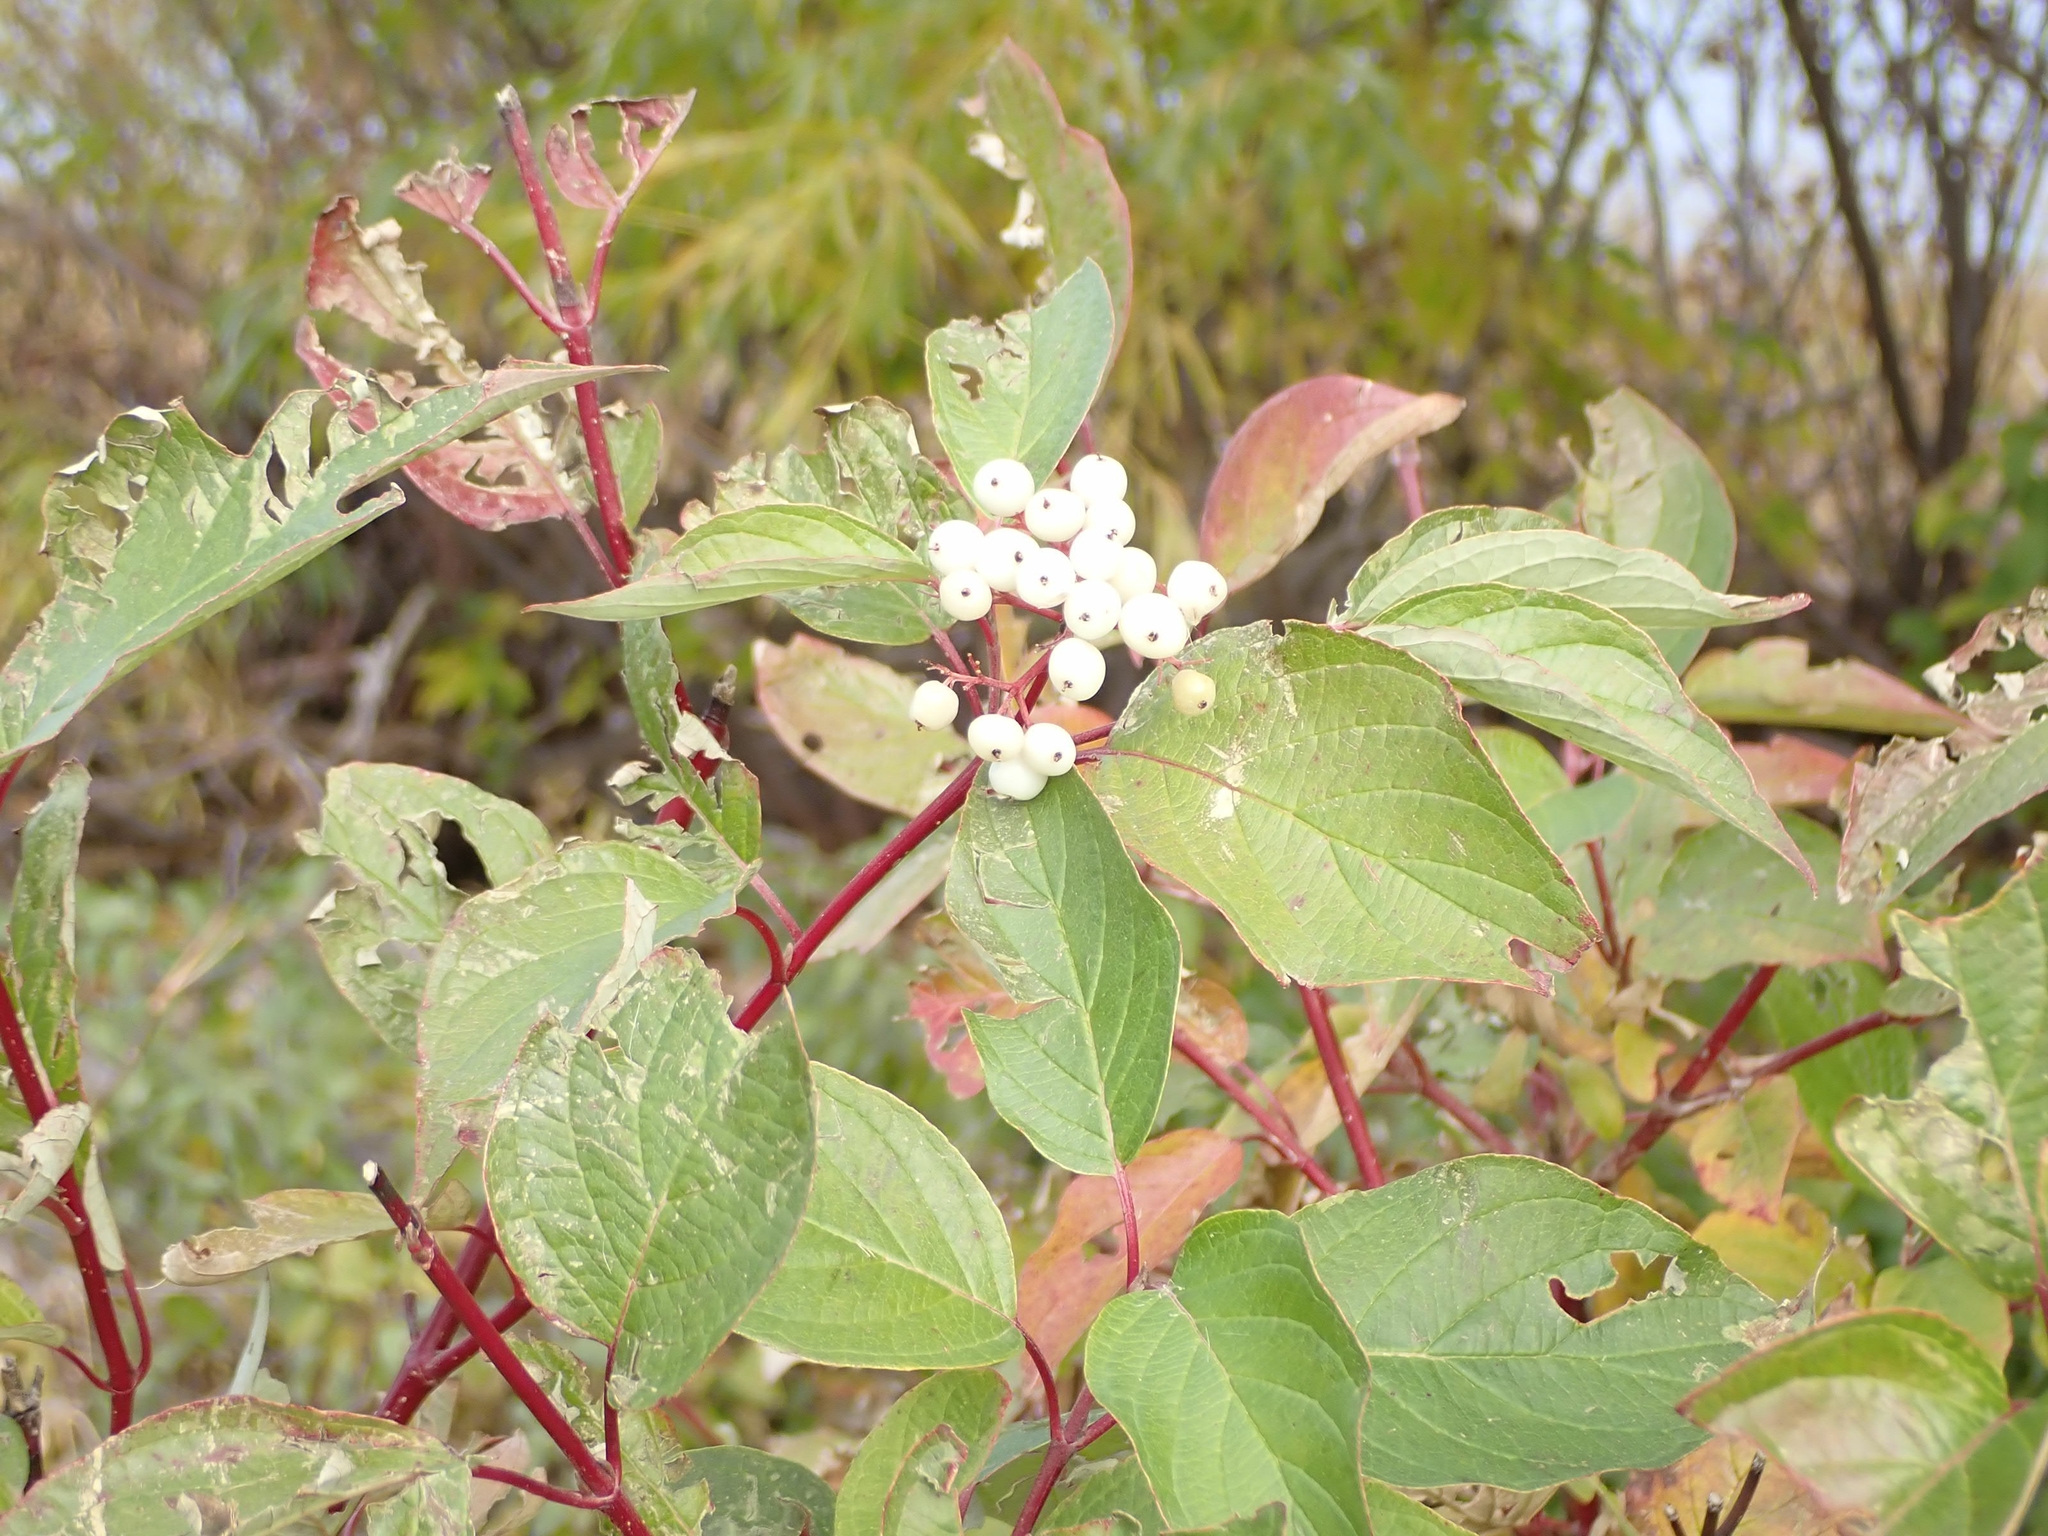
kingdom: Plantae
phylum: Tracheophyta
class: Magnoliopsida
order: Cornales
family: Cornaceae
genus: Cornus
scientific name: Cornus sericea
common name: Red-osier dogwood
